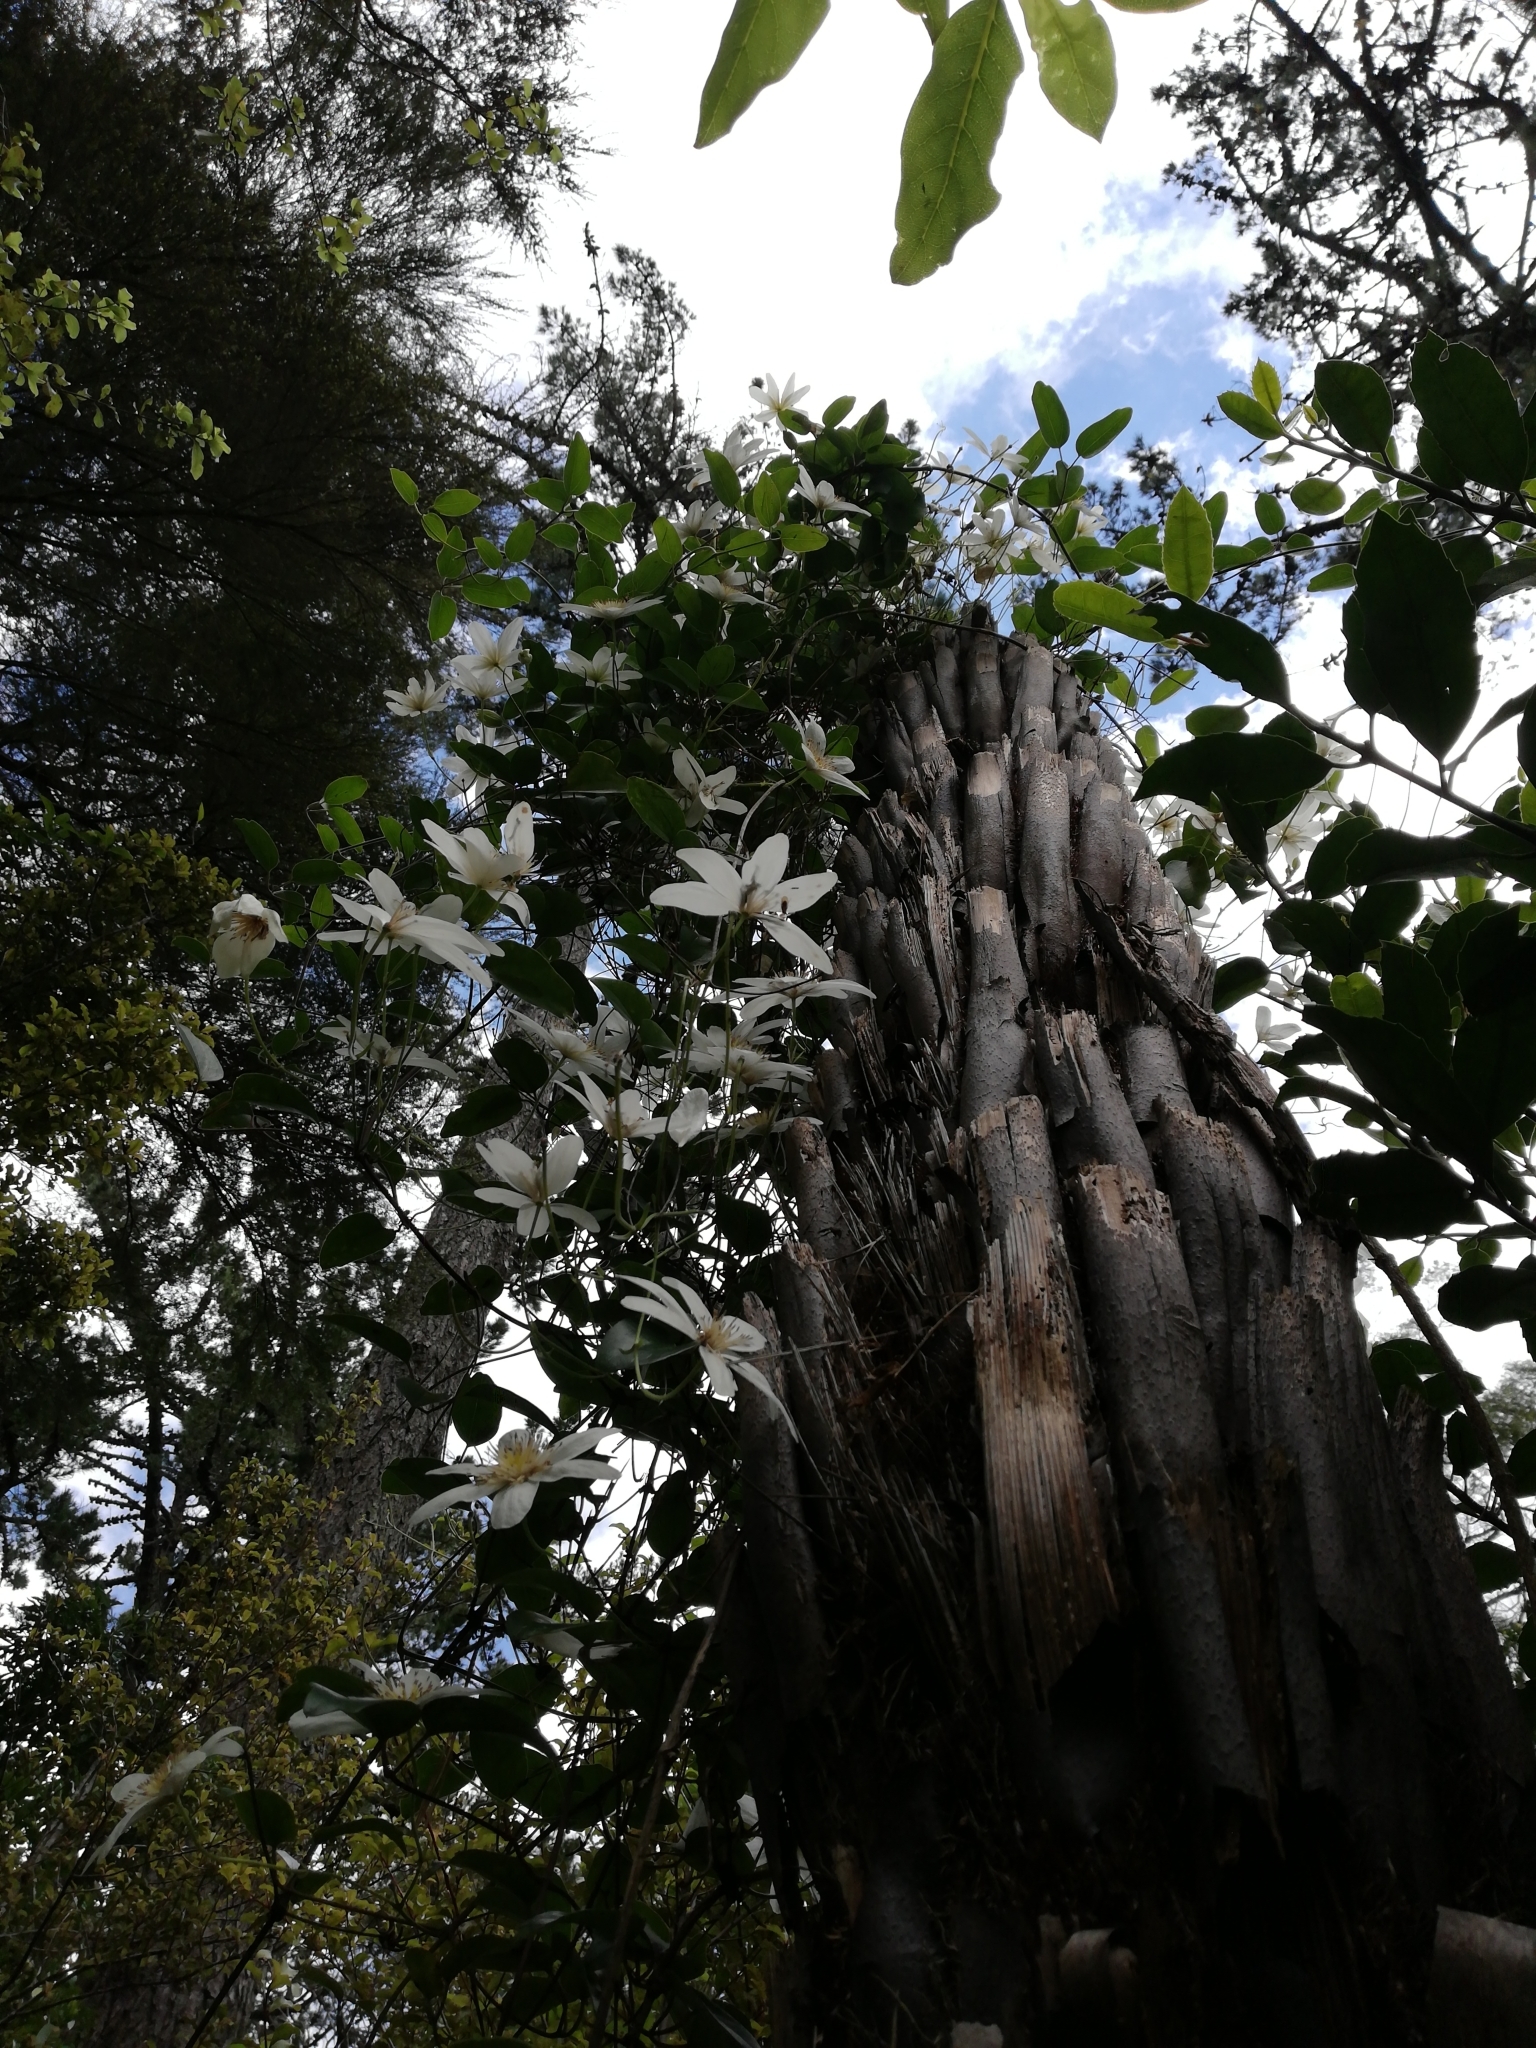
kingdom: Plantae
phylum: Tracheophyta
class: Magnoliopsida
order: Ranunculales
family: Ranunculaceae
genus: Clematis
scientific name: Clematis paniculata
